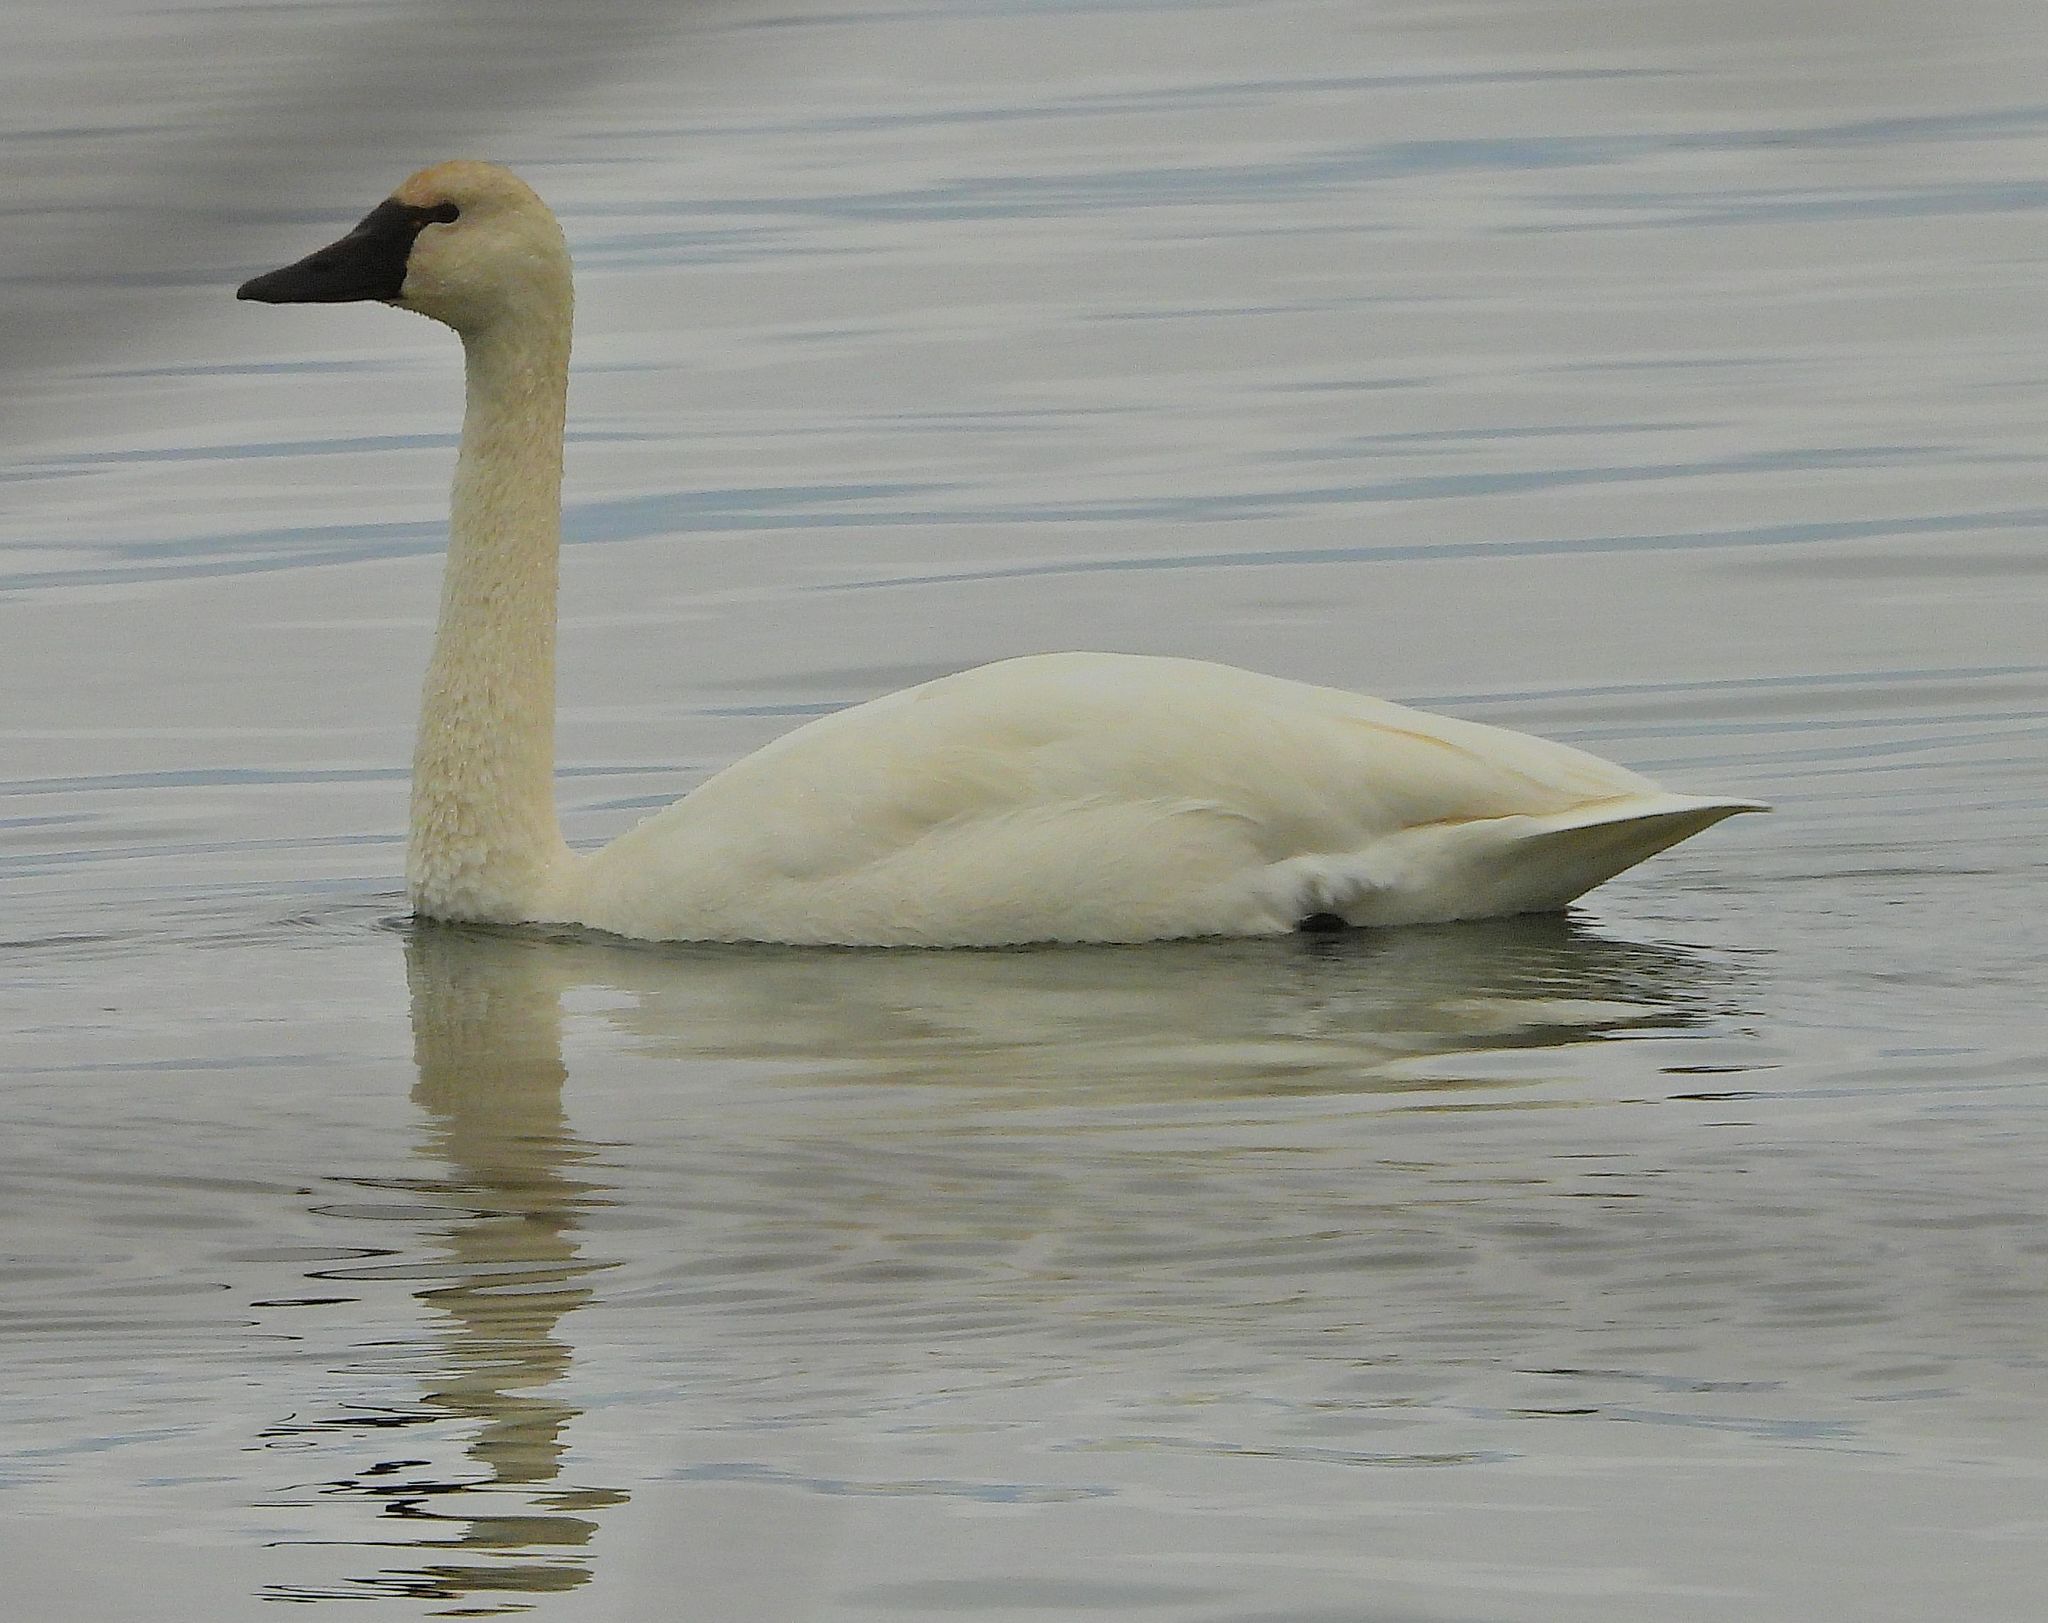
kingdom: Animalia
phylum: Chordata
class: Aves
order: Anseriformes
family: Anatidae
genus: Cygnus
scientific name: Cygnus columbianus
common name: Tundra swan
